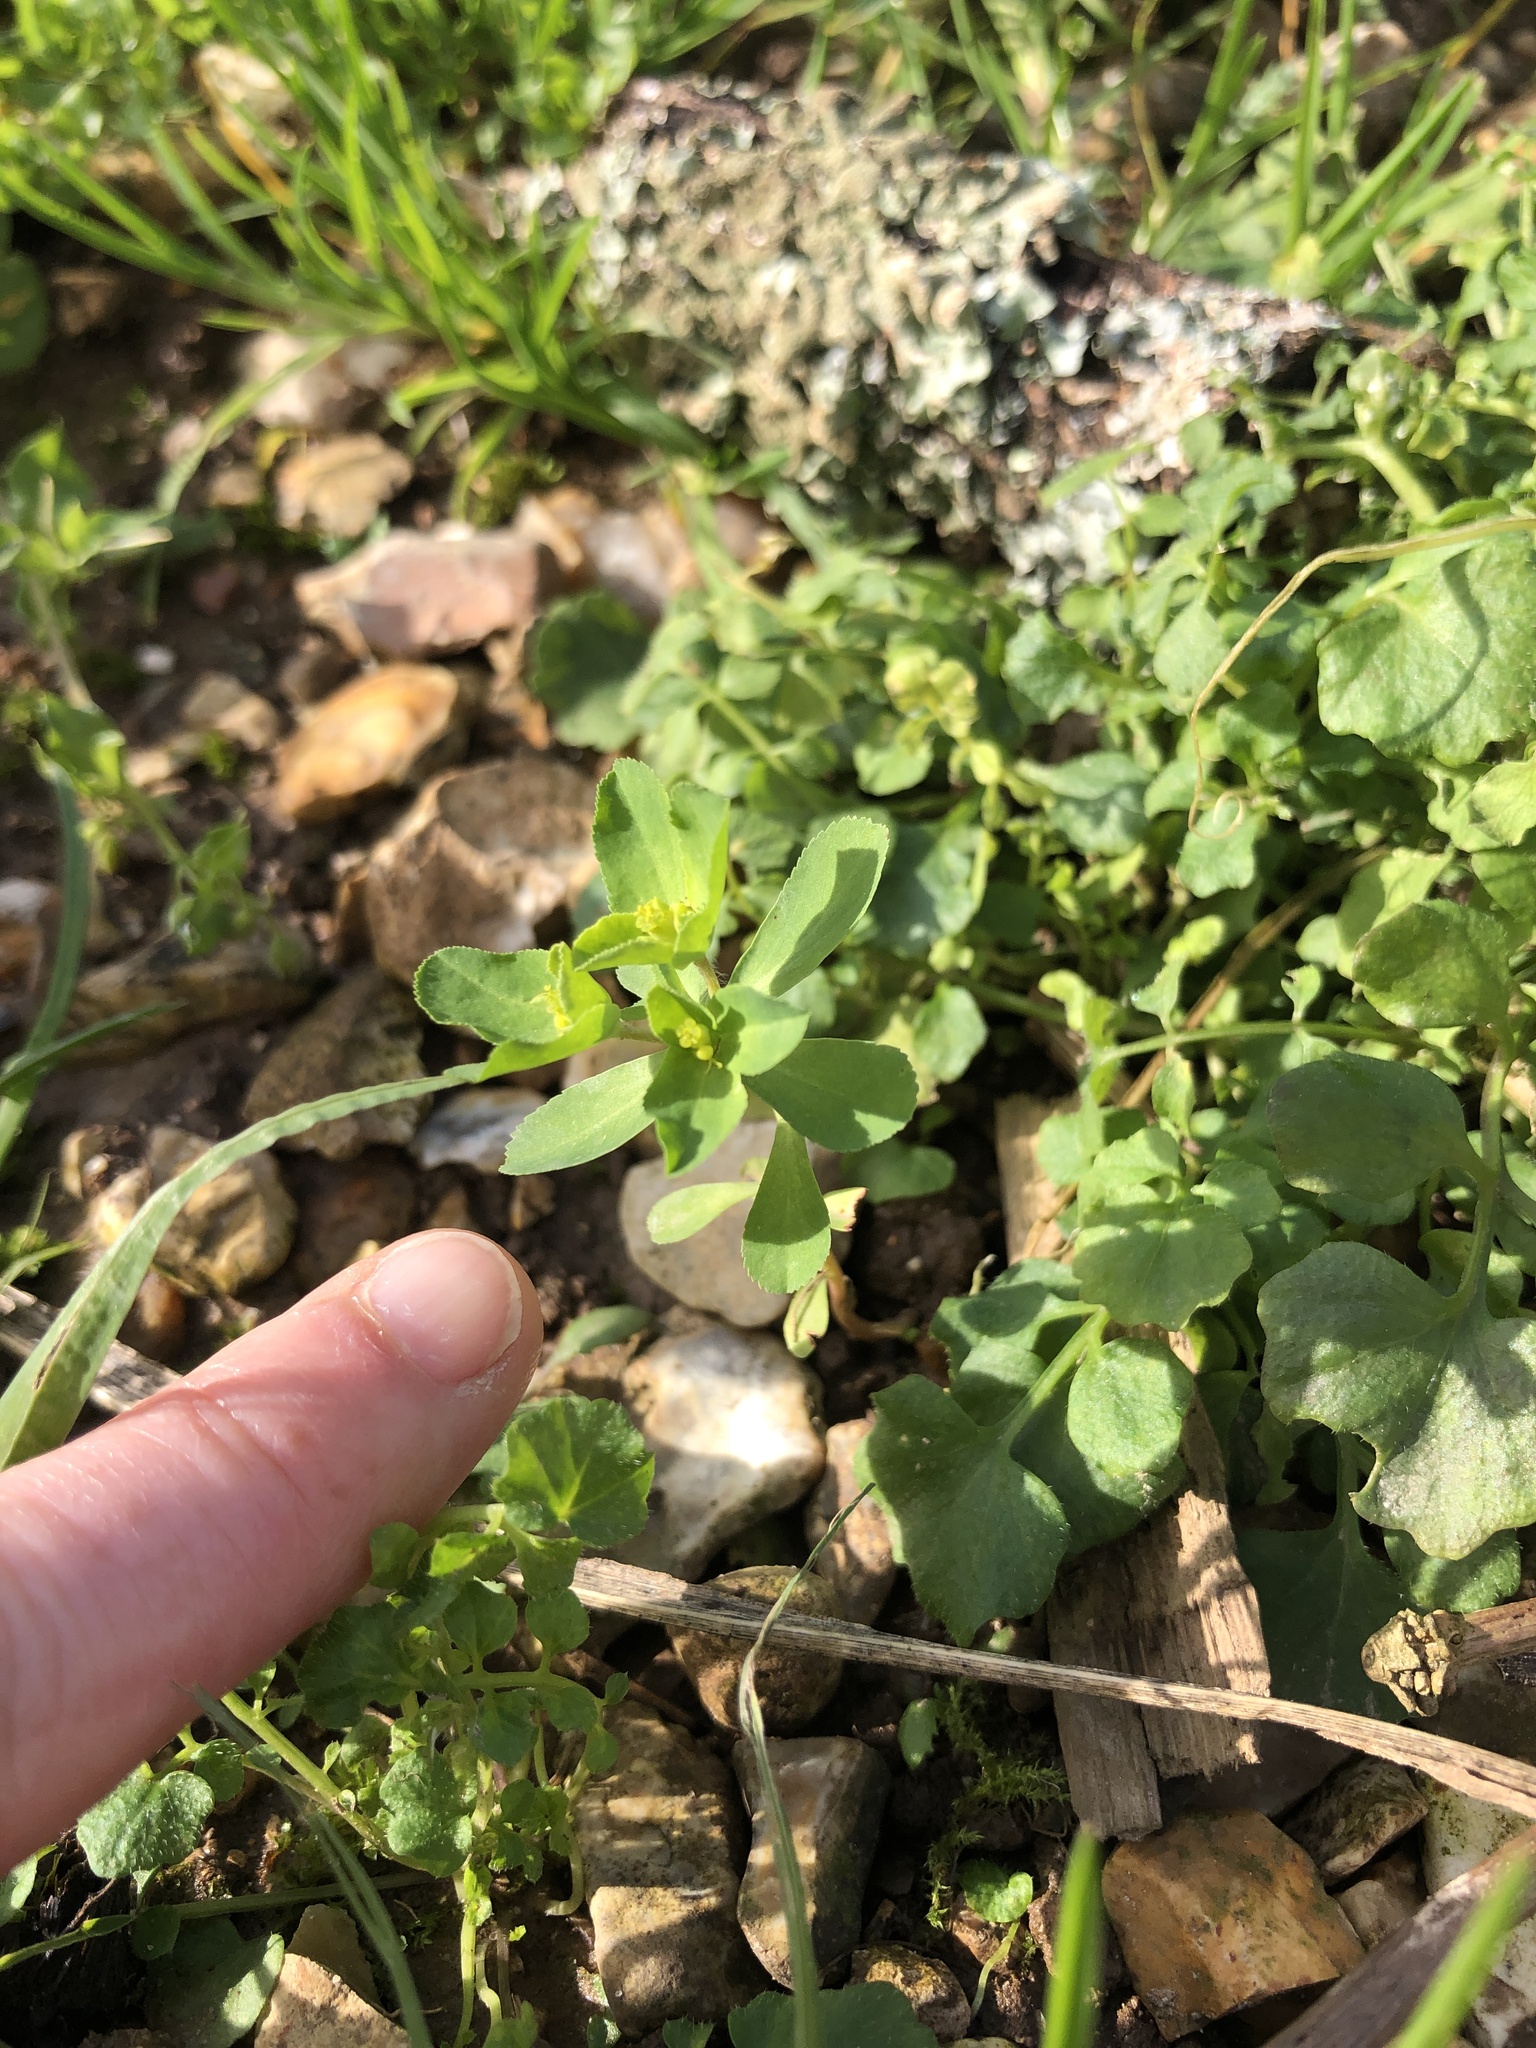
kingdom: Plantae
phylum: Tracheophyta
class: Magnoliopsida
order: Malpighiales
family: Euphorbiaceae
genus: Euphorbia
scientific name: Euphorbia helioscopia
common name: Sun spurge
